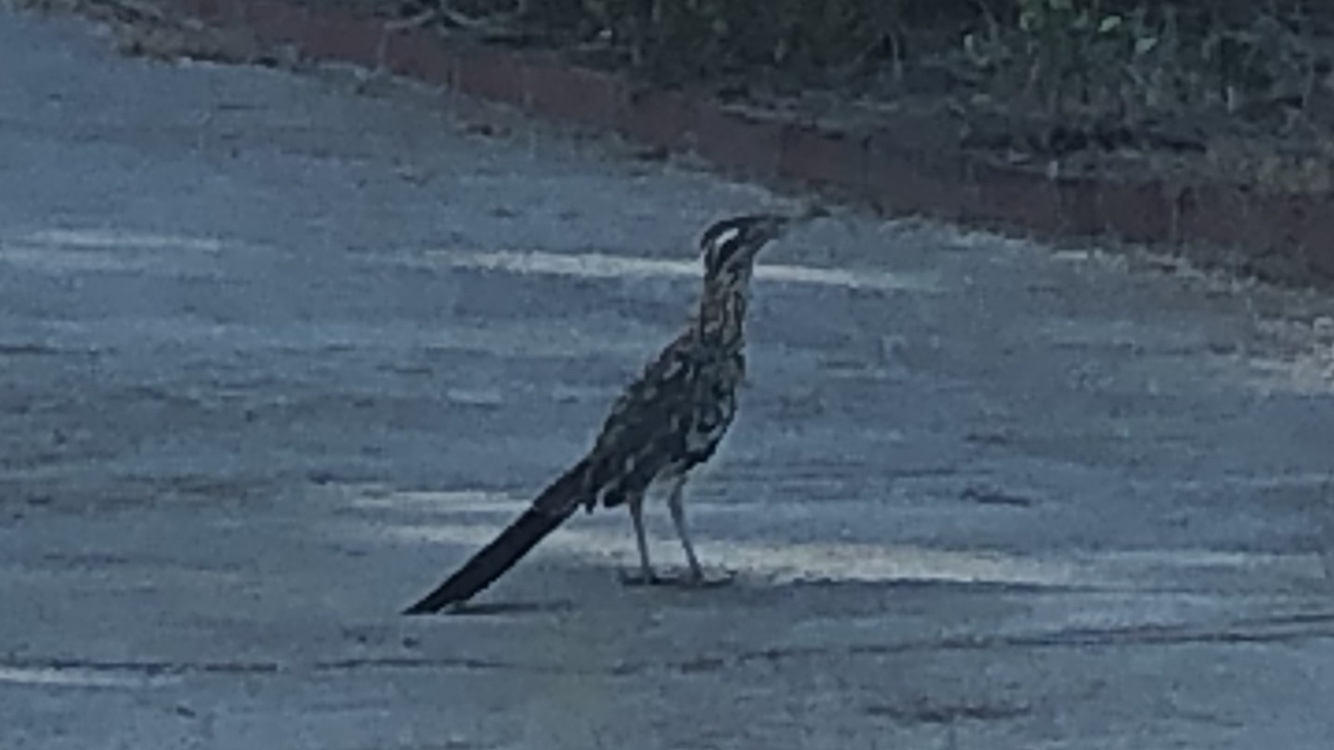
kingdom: Animalia
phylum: Chordata
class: Aves
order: Cuculiformes
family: Cuculidae
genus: Geococcyx
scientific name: Geococcyx californianus
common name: Greater roadrunner
